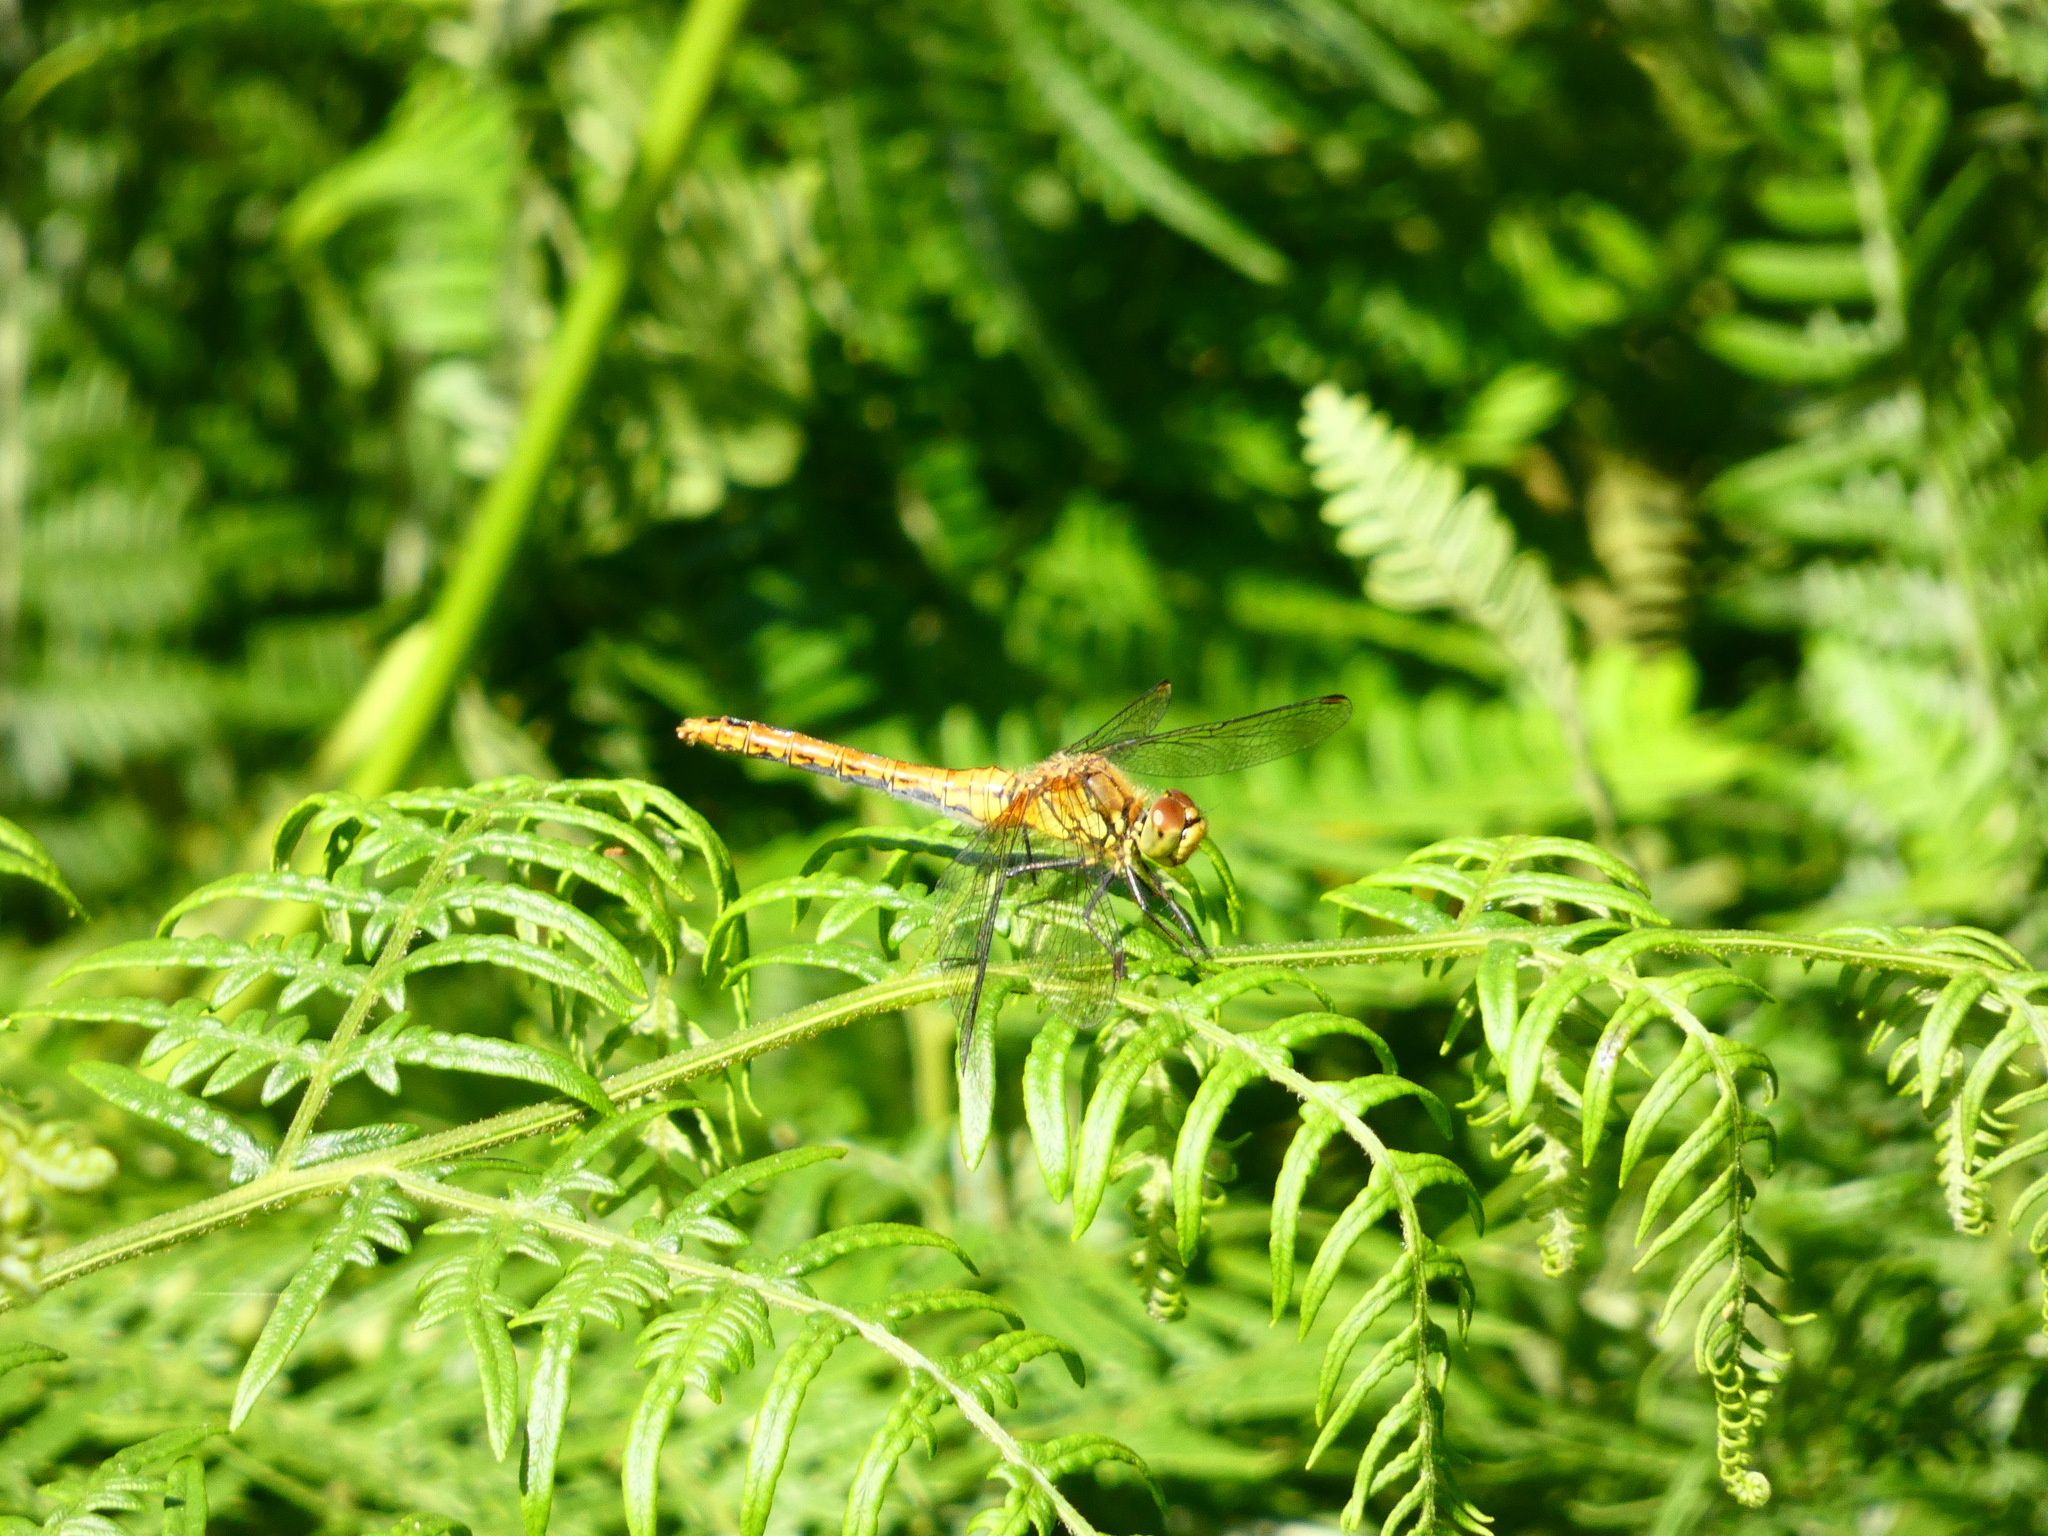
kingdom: Animalia
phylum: Arthropoda
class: Insecta
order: Odonata
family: Libellulidae
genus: Sympetrum
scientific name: Sympetrum sanguineum
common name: Ruddy darter
